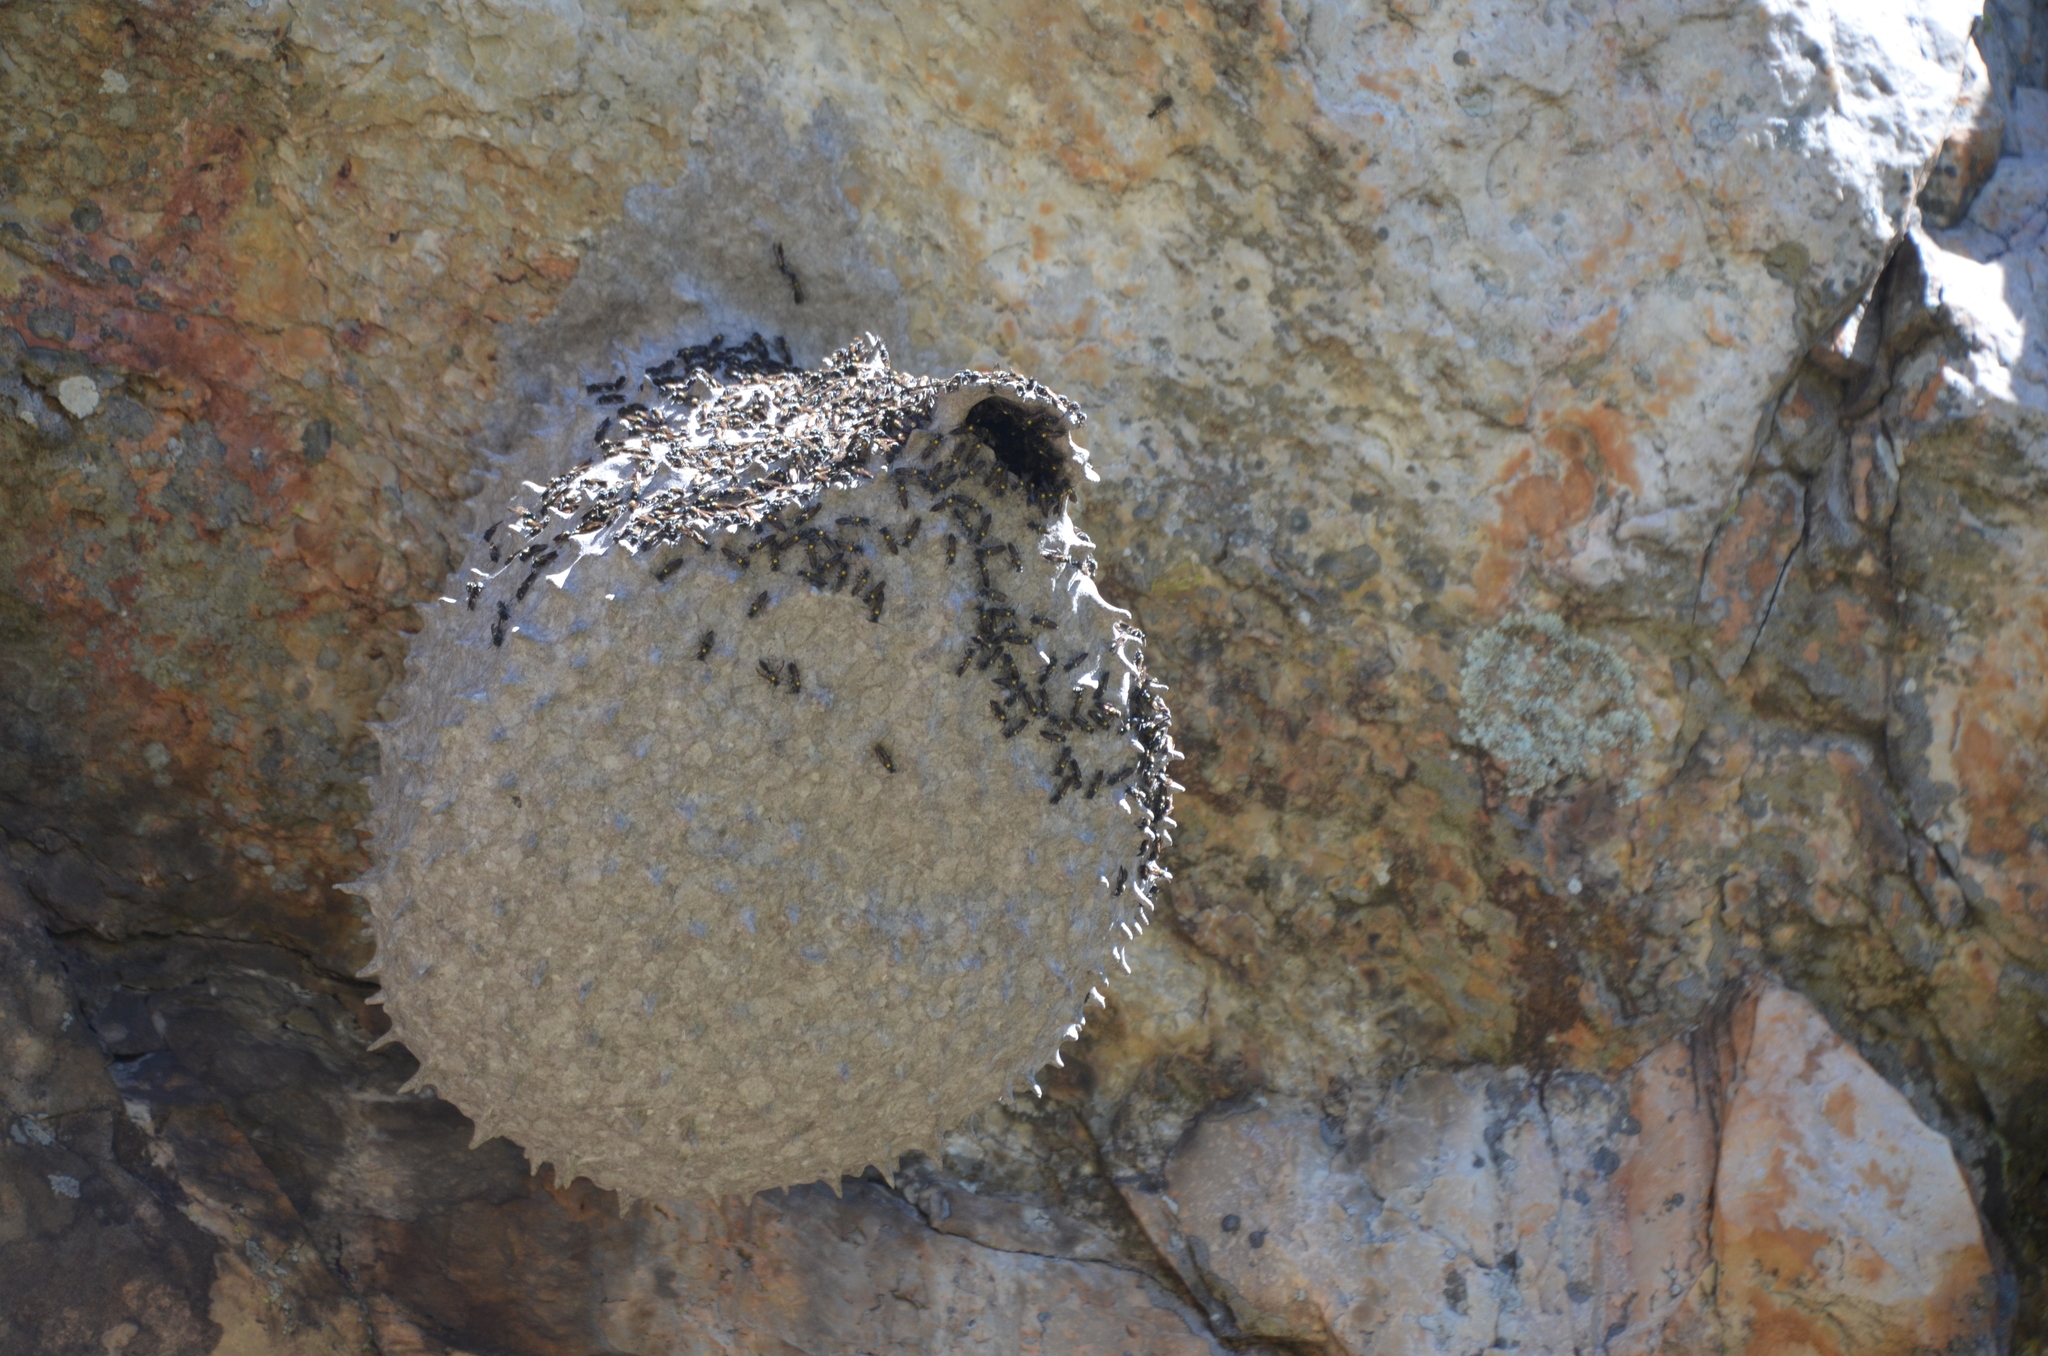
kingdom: Animalia
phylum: Arthropoda
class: Insecta
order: Hymenoptera
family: Eumenidae
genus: Polybia
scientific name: Polybia scutellaris
